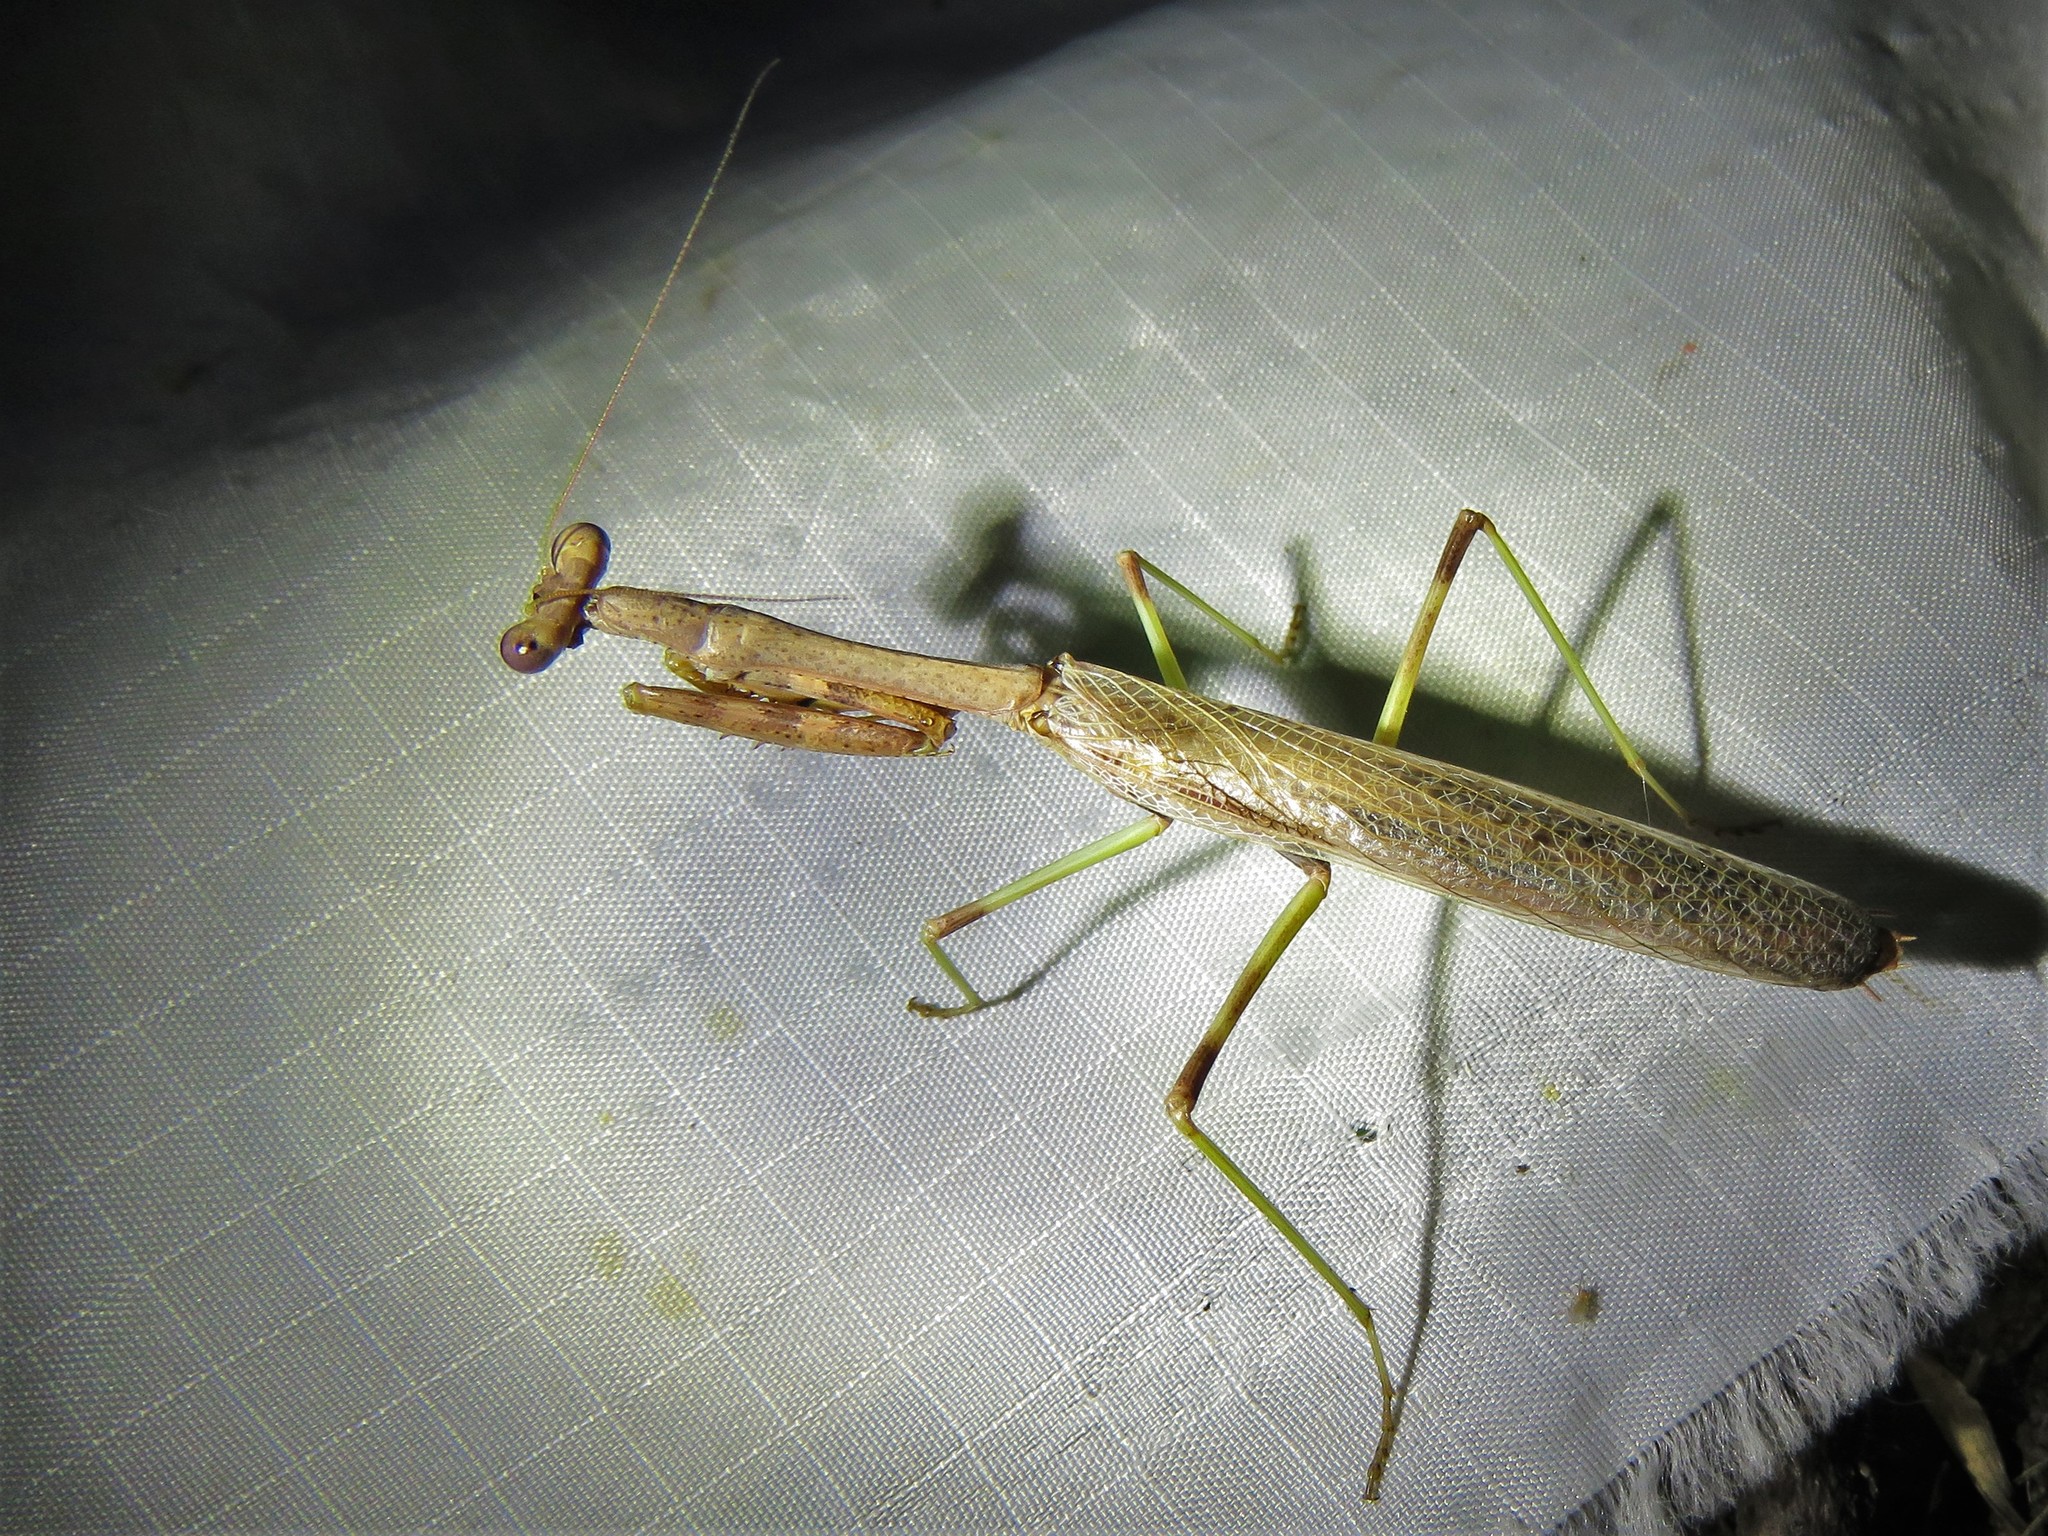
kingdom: Animalia
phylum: Arthropoda
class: Insecta
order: Mantodea
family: Mantidae
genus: Stagmomantis
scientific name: Stagmomantis carolina
